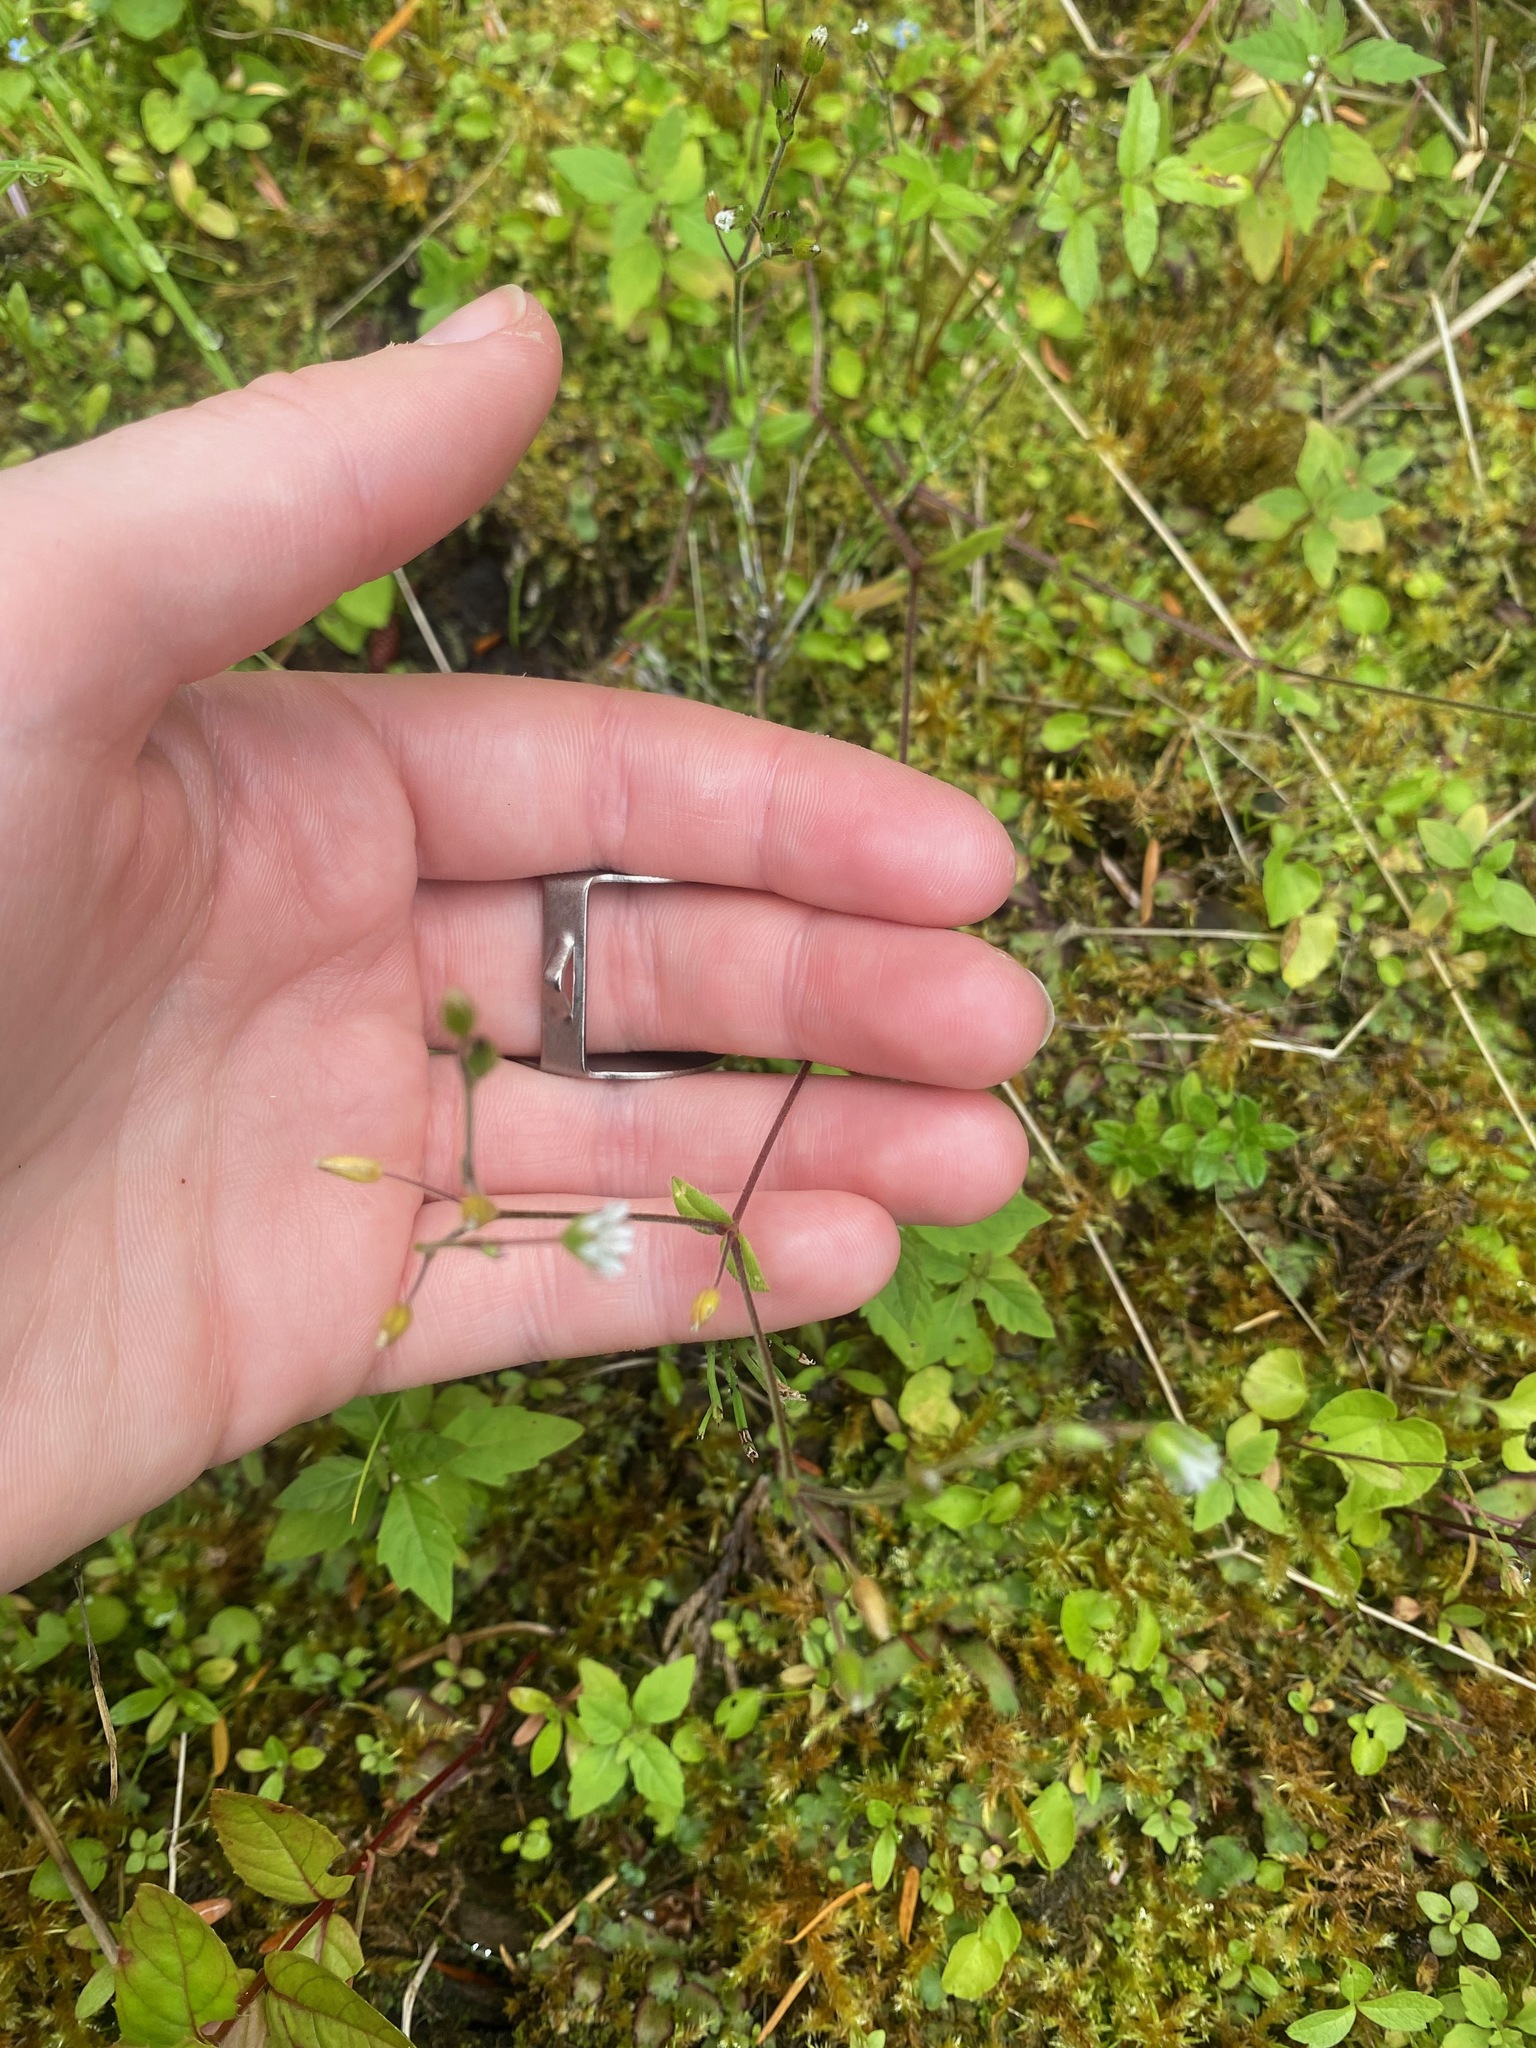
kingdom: Plantae
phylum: Tracheophyta
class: Magnoliopsida
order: Caryophyllales
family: Caryophyllaceae
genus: Cerastium
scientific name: Cerastium fontanum
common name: Common mouse-ear
